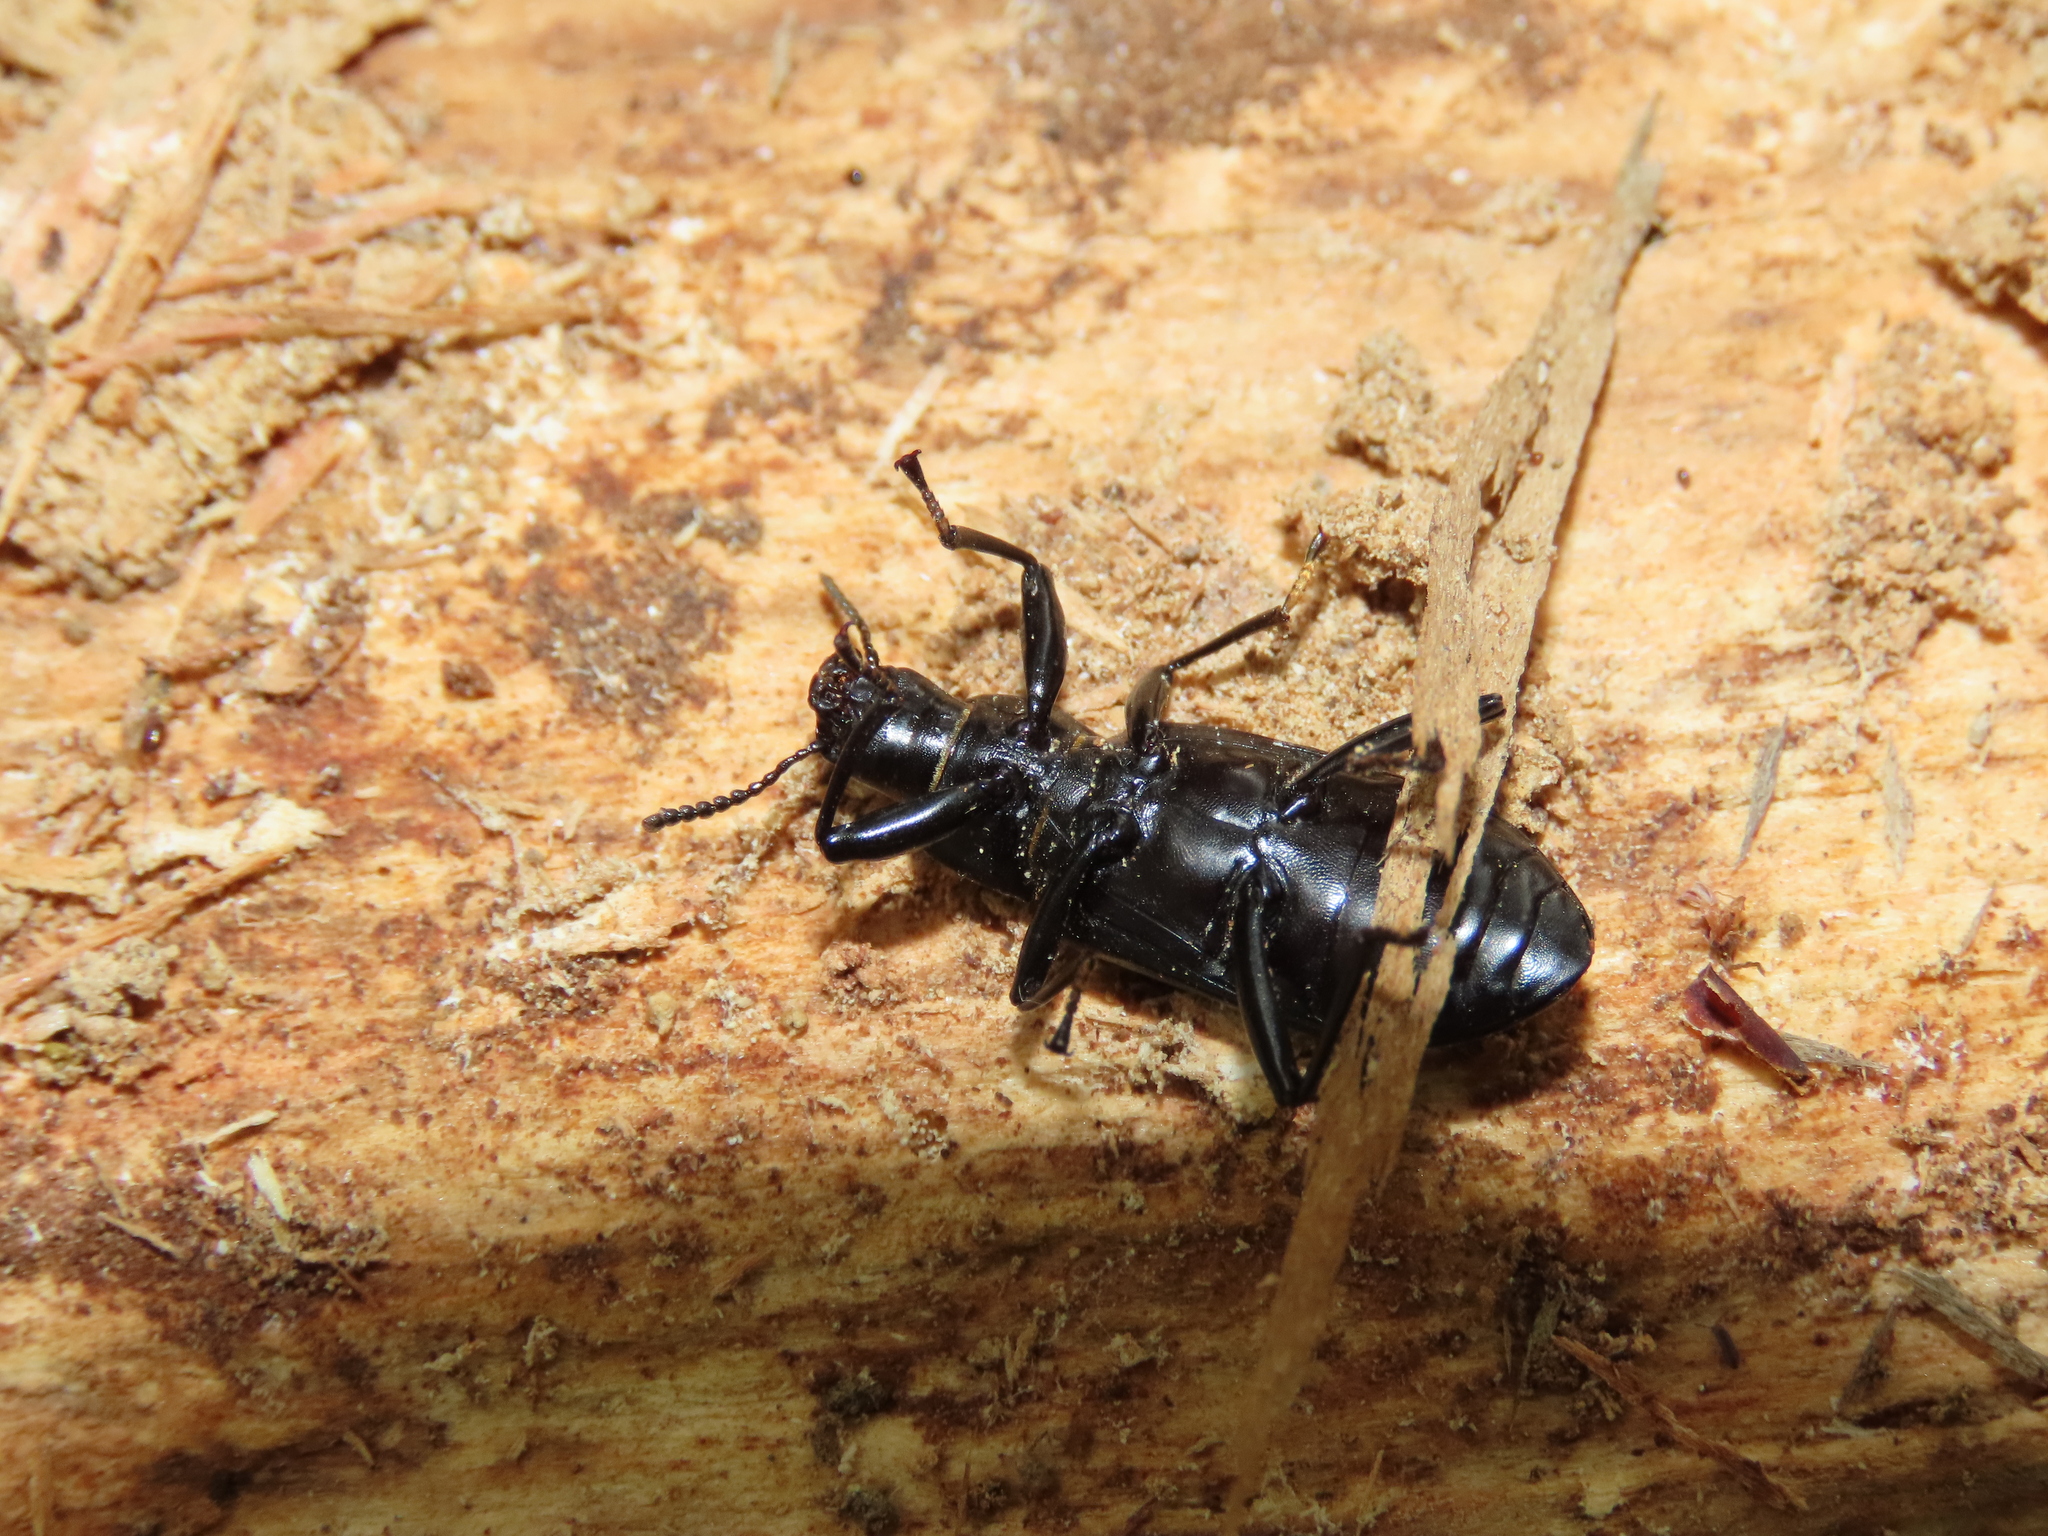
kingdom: Animalia
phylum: Arthropoda
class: Insecta
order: Coleoptera
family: Tenebrionidae
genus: Alobates
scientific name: Alobates pensylvanicus
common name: False mealworm beetle
